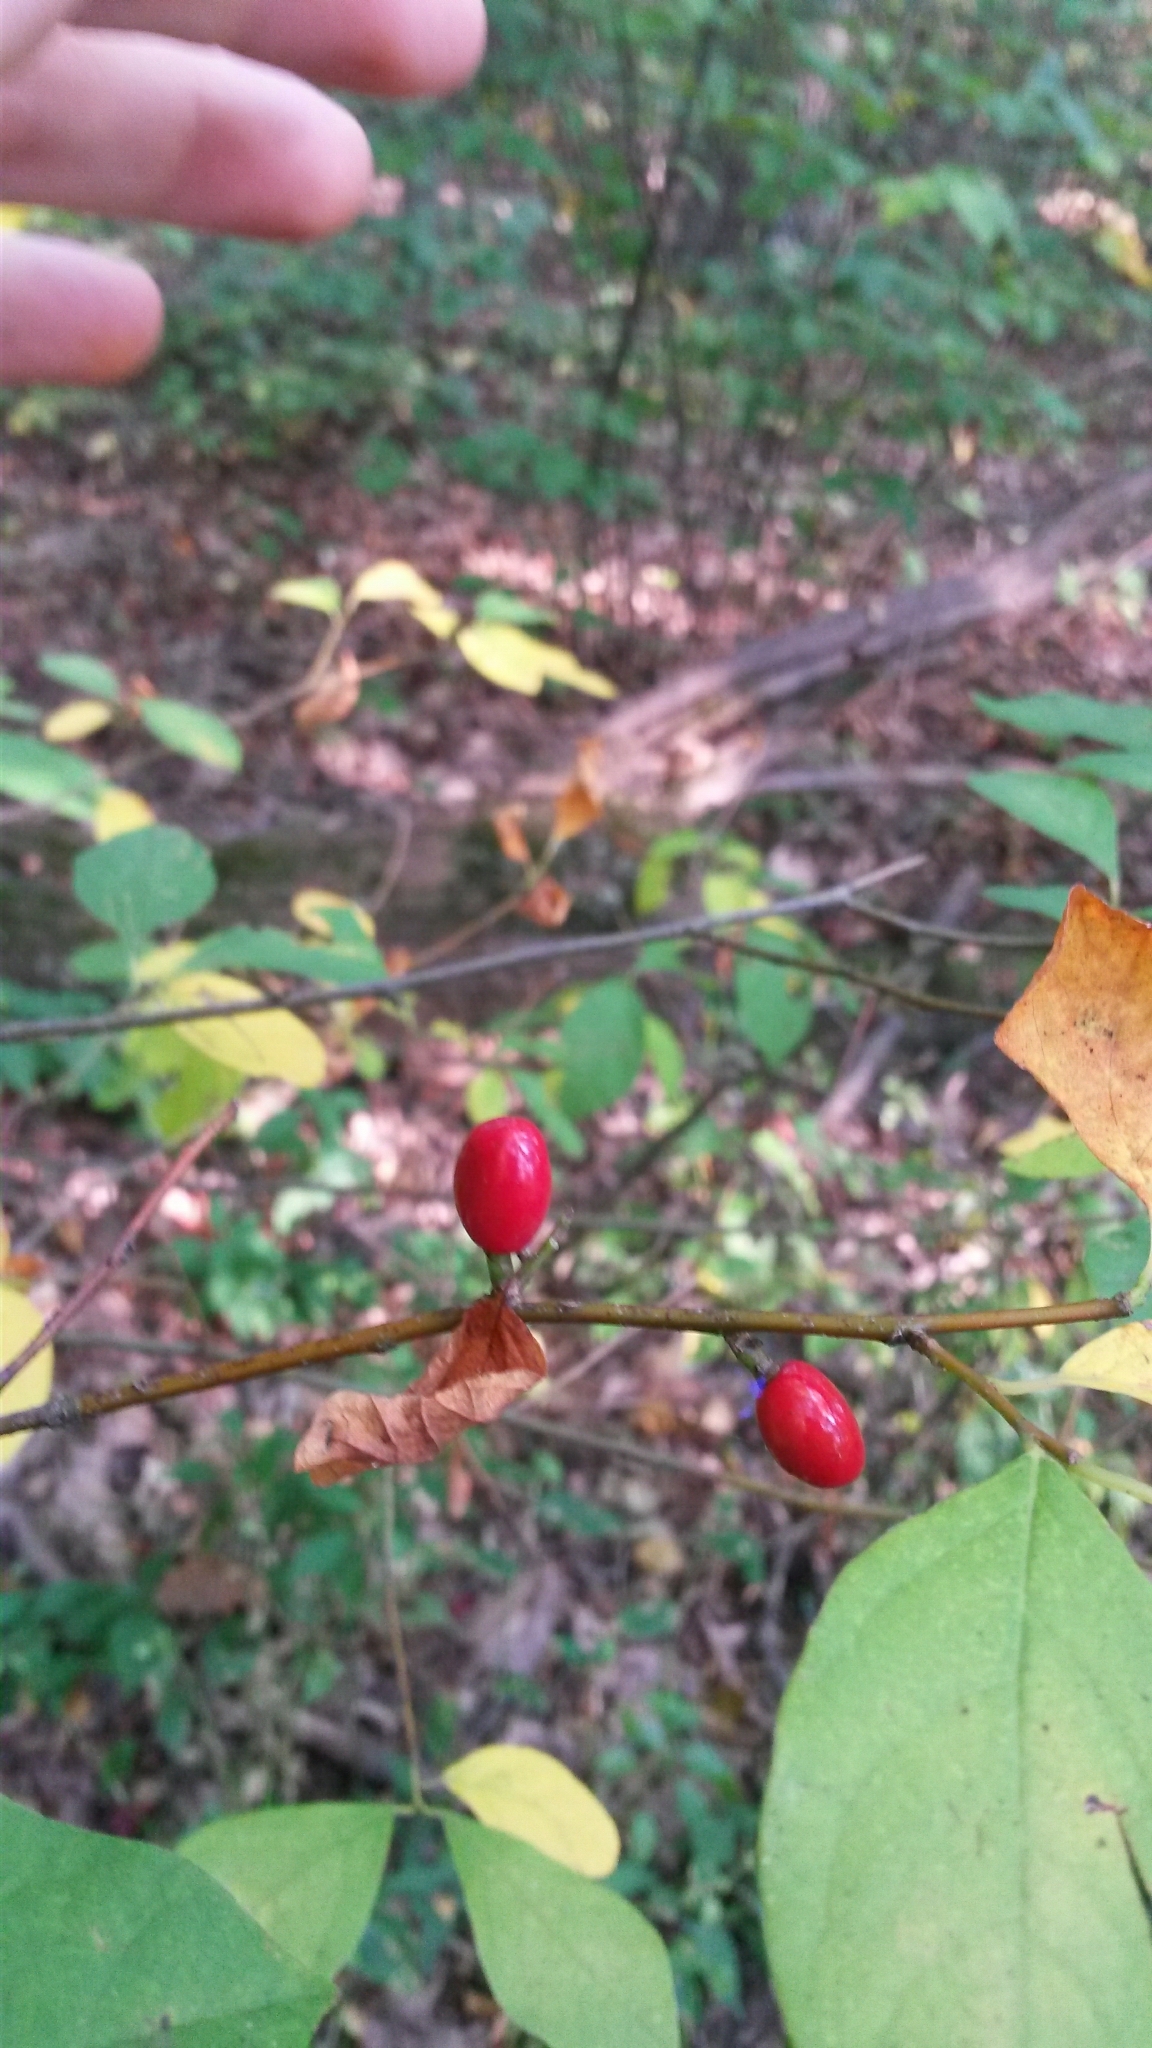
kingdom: Plantae
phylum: Tracheophyta
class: Magnoliopsida
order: Laurales
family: Lauraceae
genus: Lindera
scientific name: Lindera benzoin
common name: Spicebush
